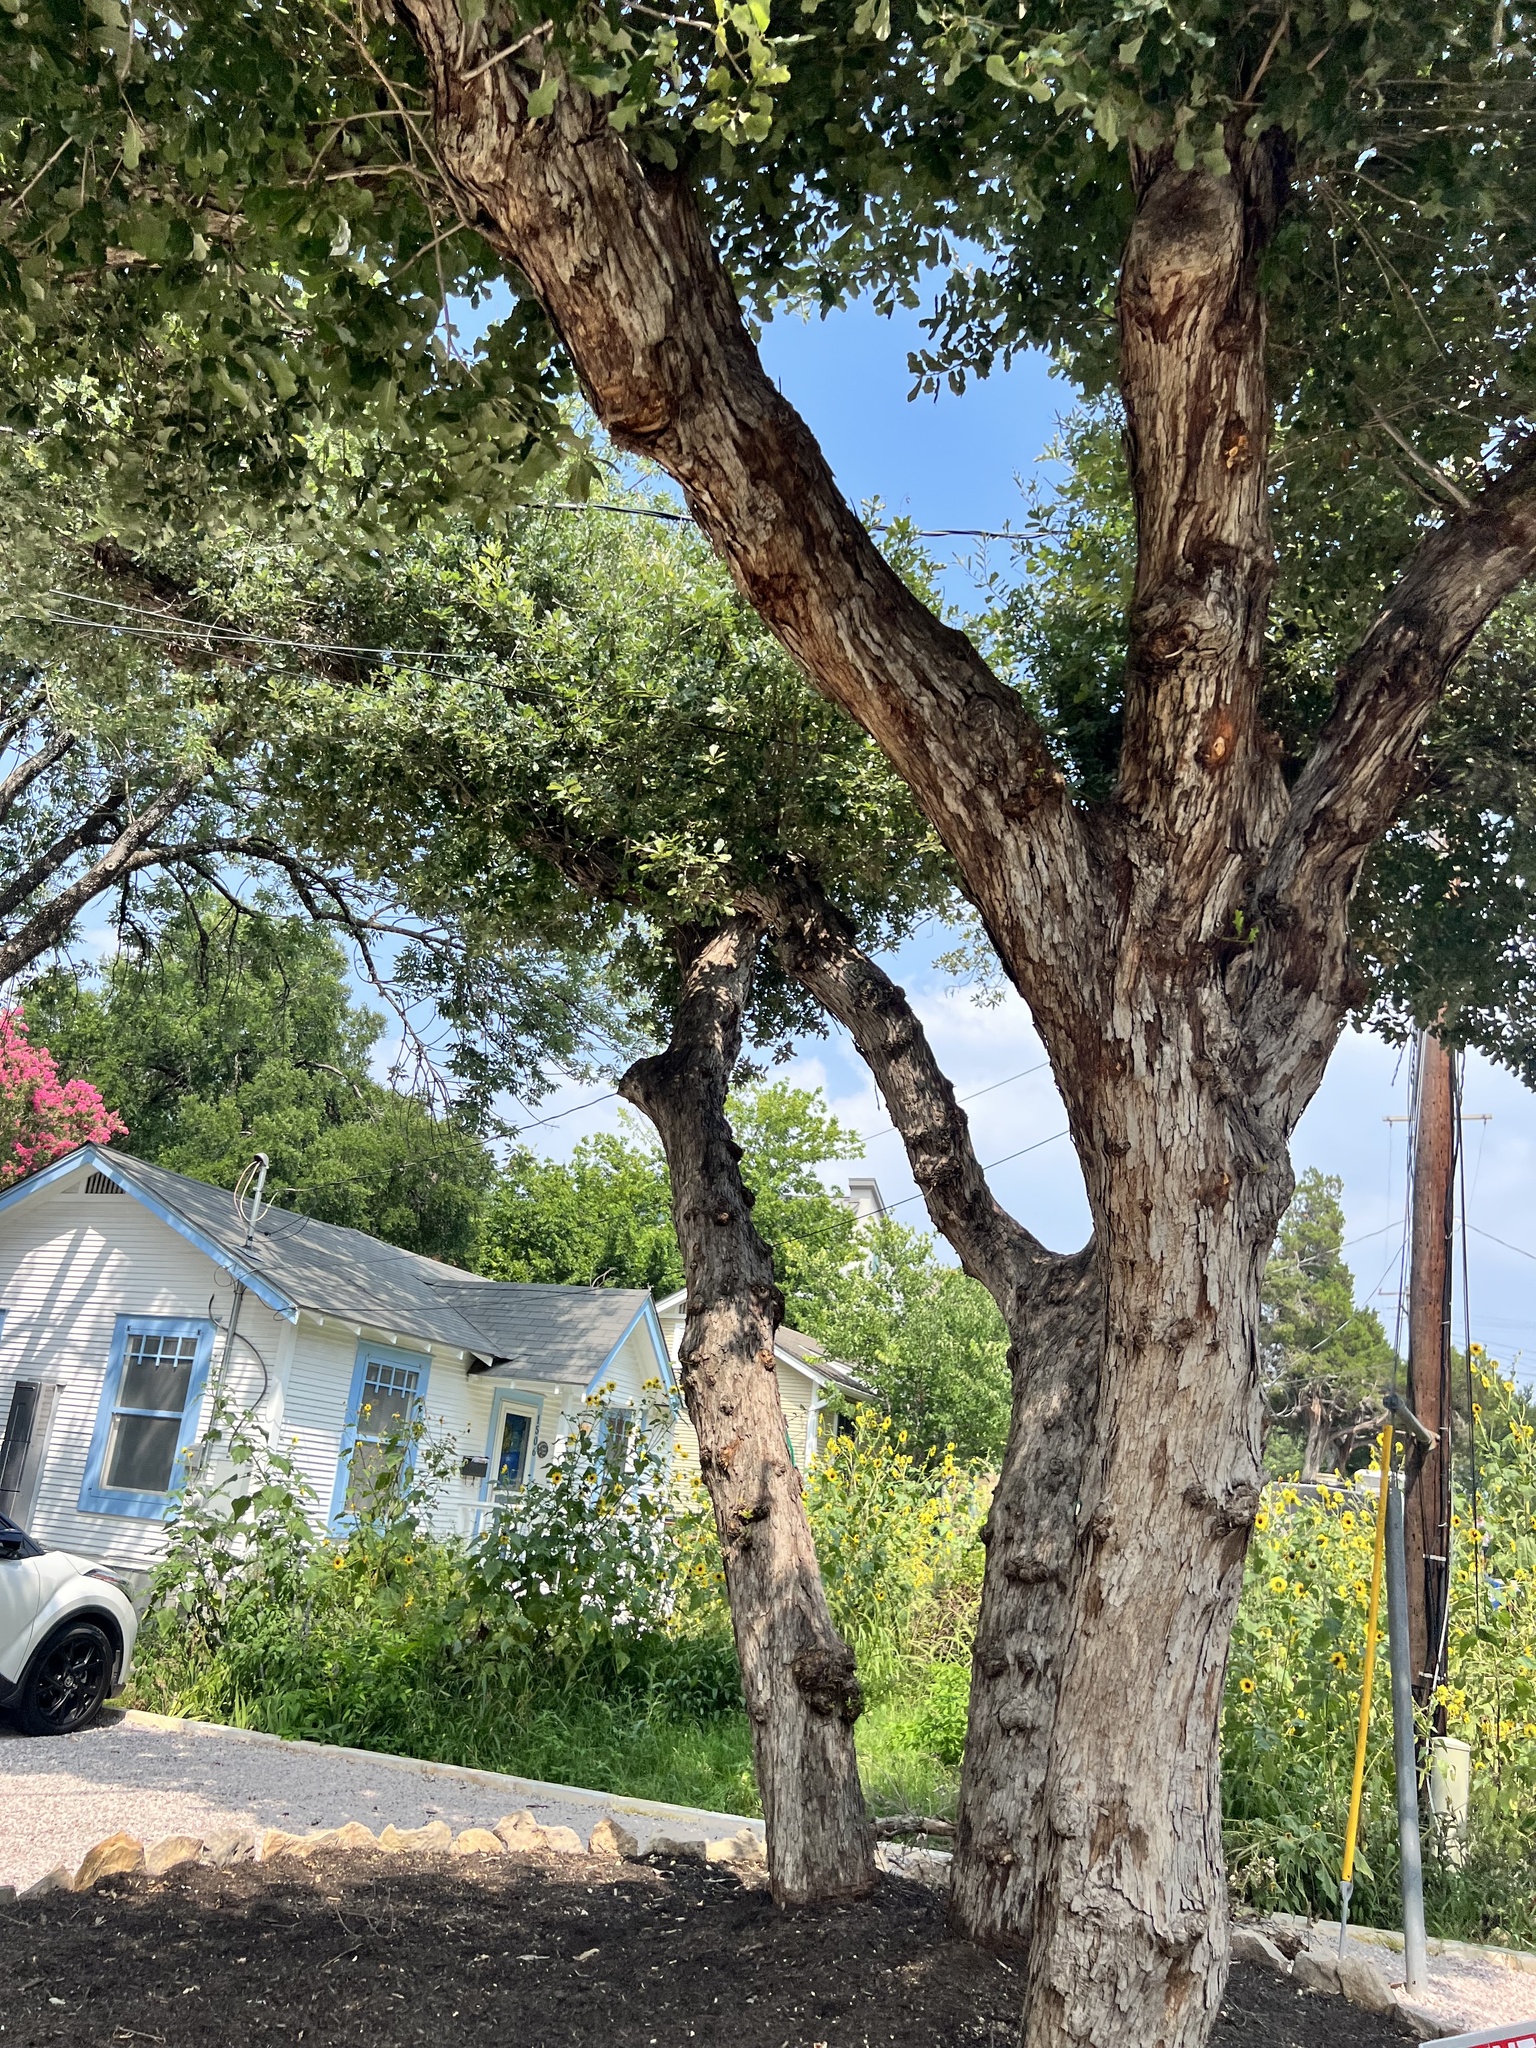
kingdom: Plantae
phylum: Tracheophyta
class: Magnoliopsida
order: Fagales
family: Fagaceae
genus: Quercus
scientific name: Quercus sinuata
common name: Durand oak
